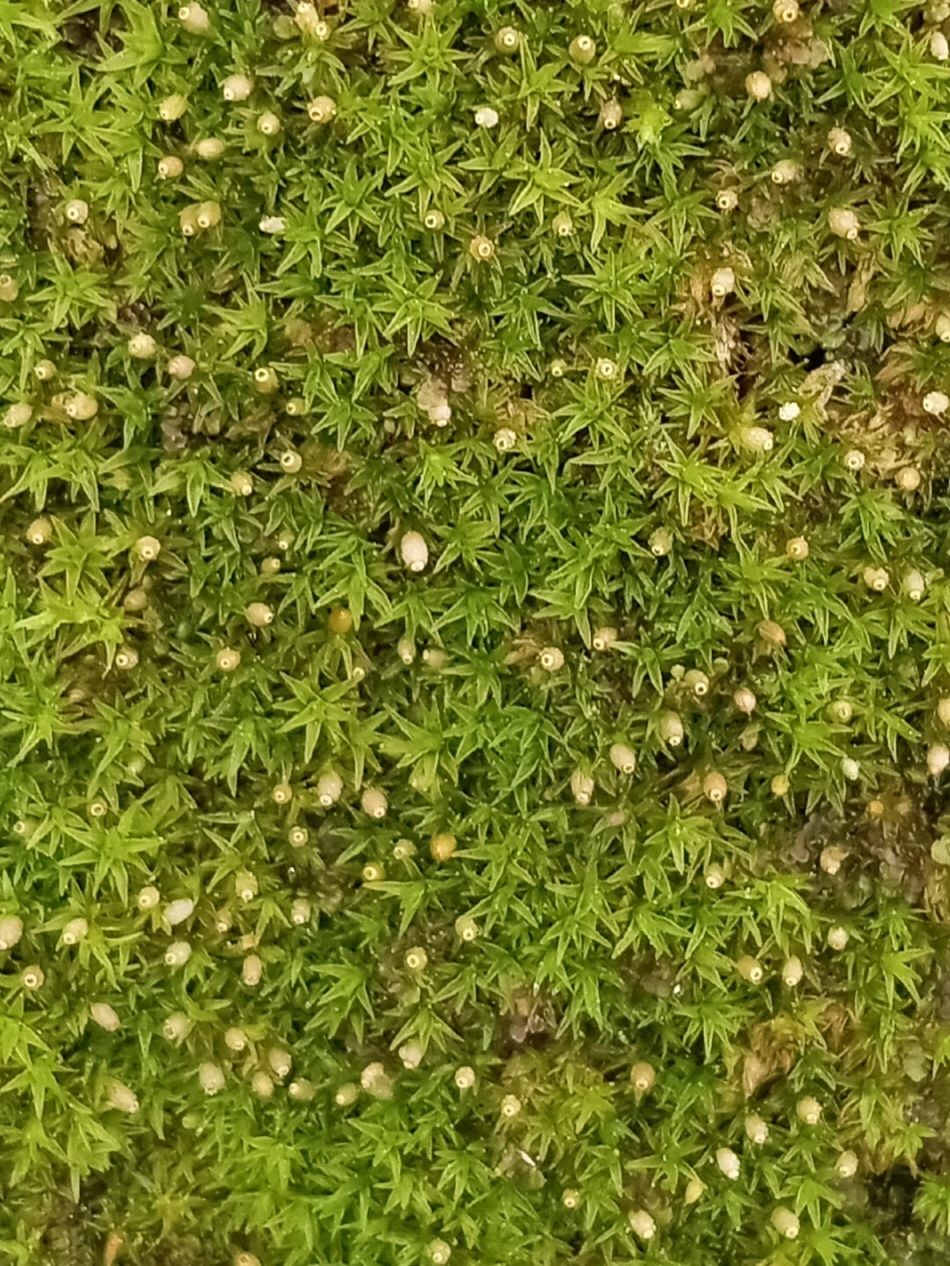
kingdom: Plantae
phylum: Bryophyta
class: Bryopsida
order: Orthotrichales
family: Orthotrichaceae
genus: Orthotrichum
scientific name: Orthotrichum stellatum
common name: Starlike bristle moss
